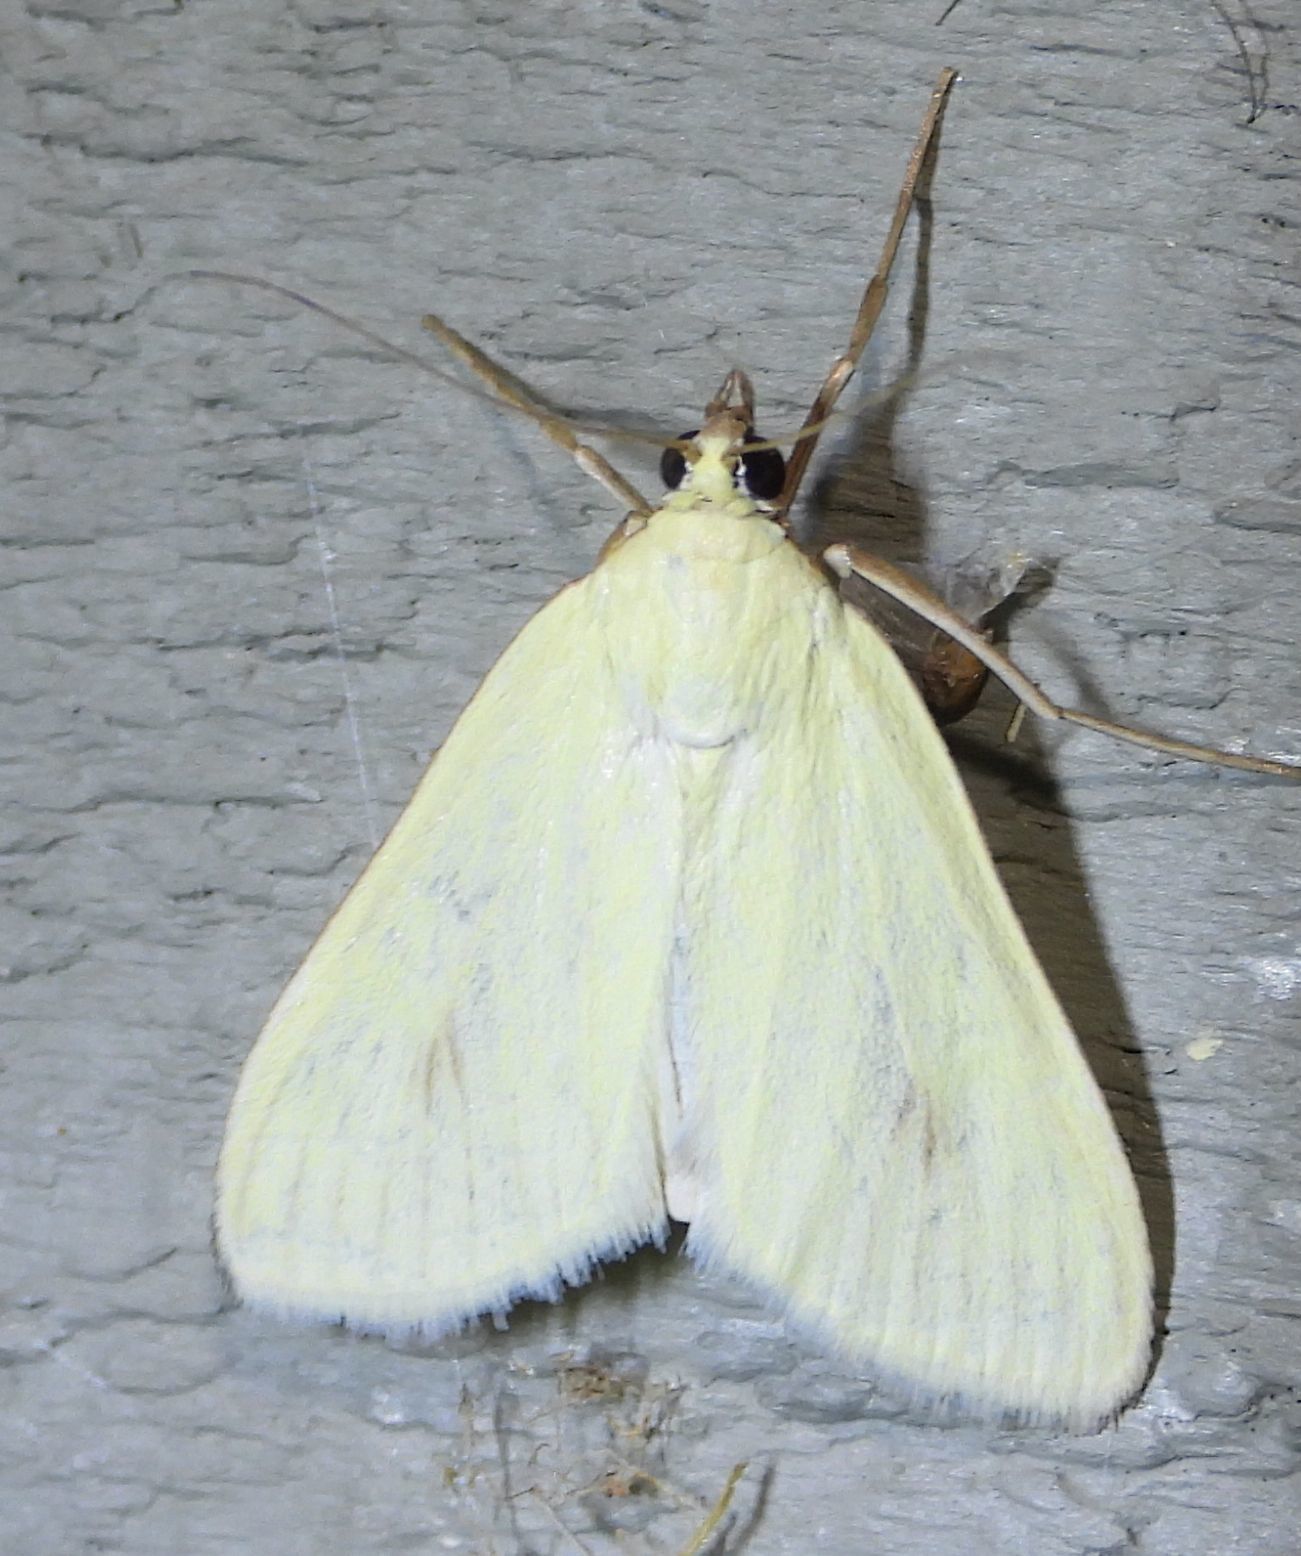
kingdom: Animalia
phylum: Arthropoda
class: Insecta
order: Lepidoptera
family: Crambidae
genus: Sitochroa
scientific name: Sitochroa palealis
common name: Greenish-yellow sitochroa moth
